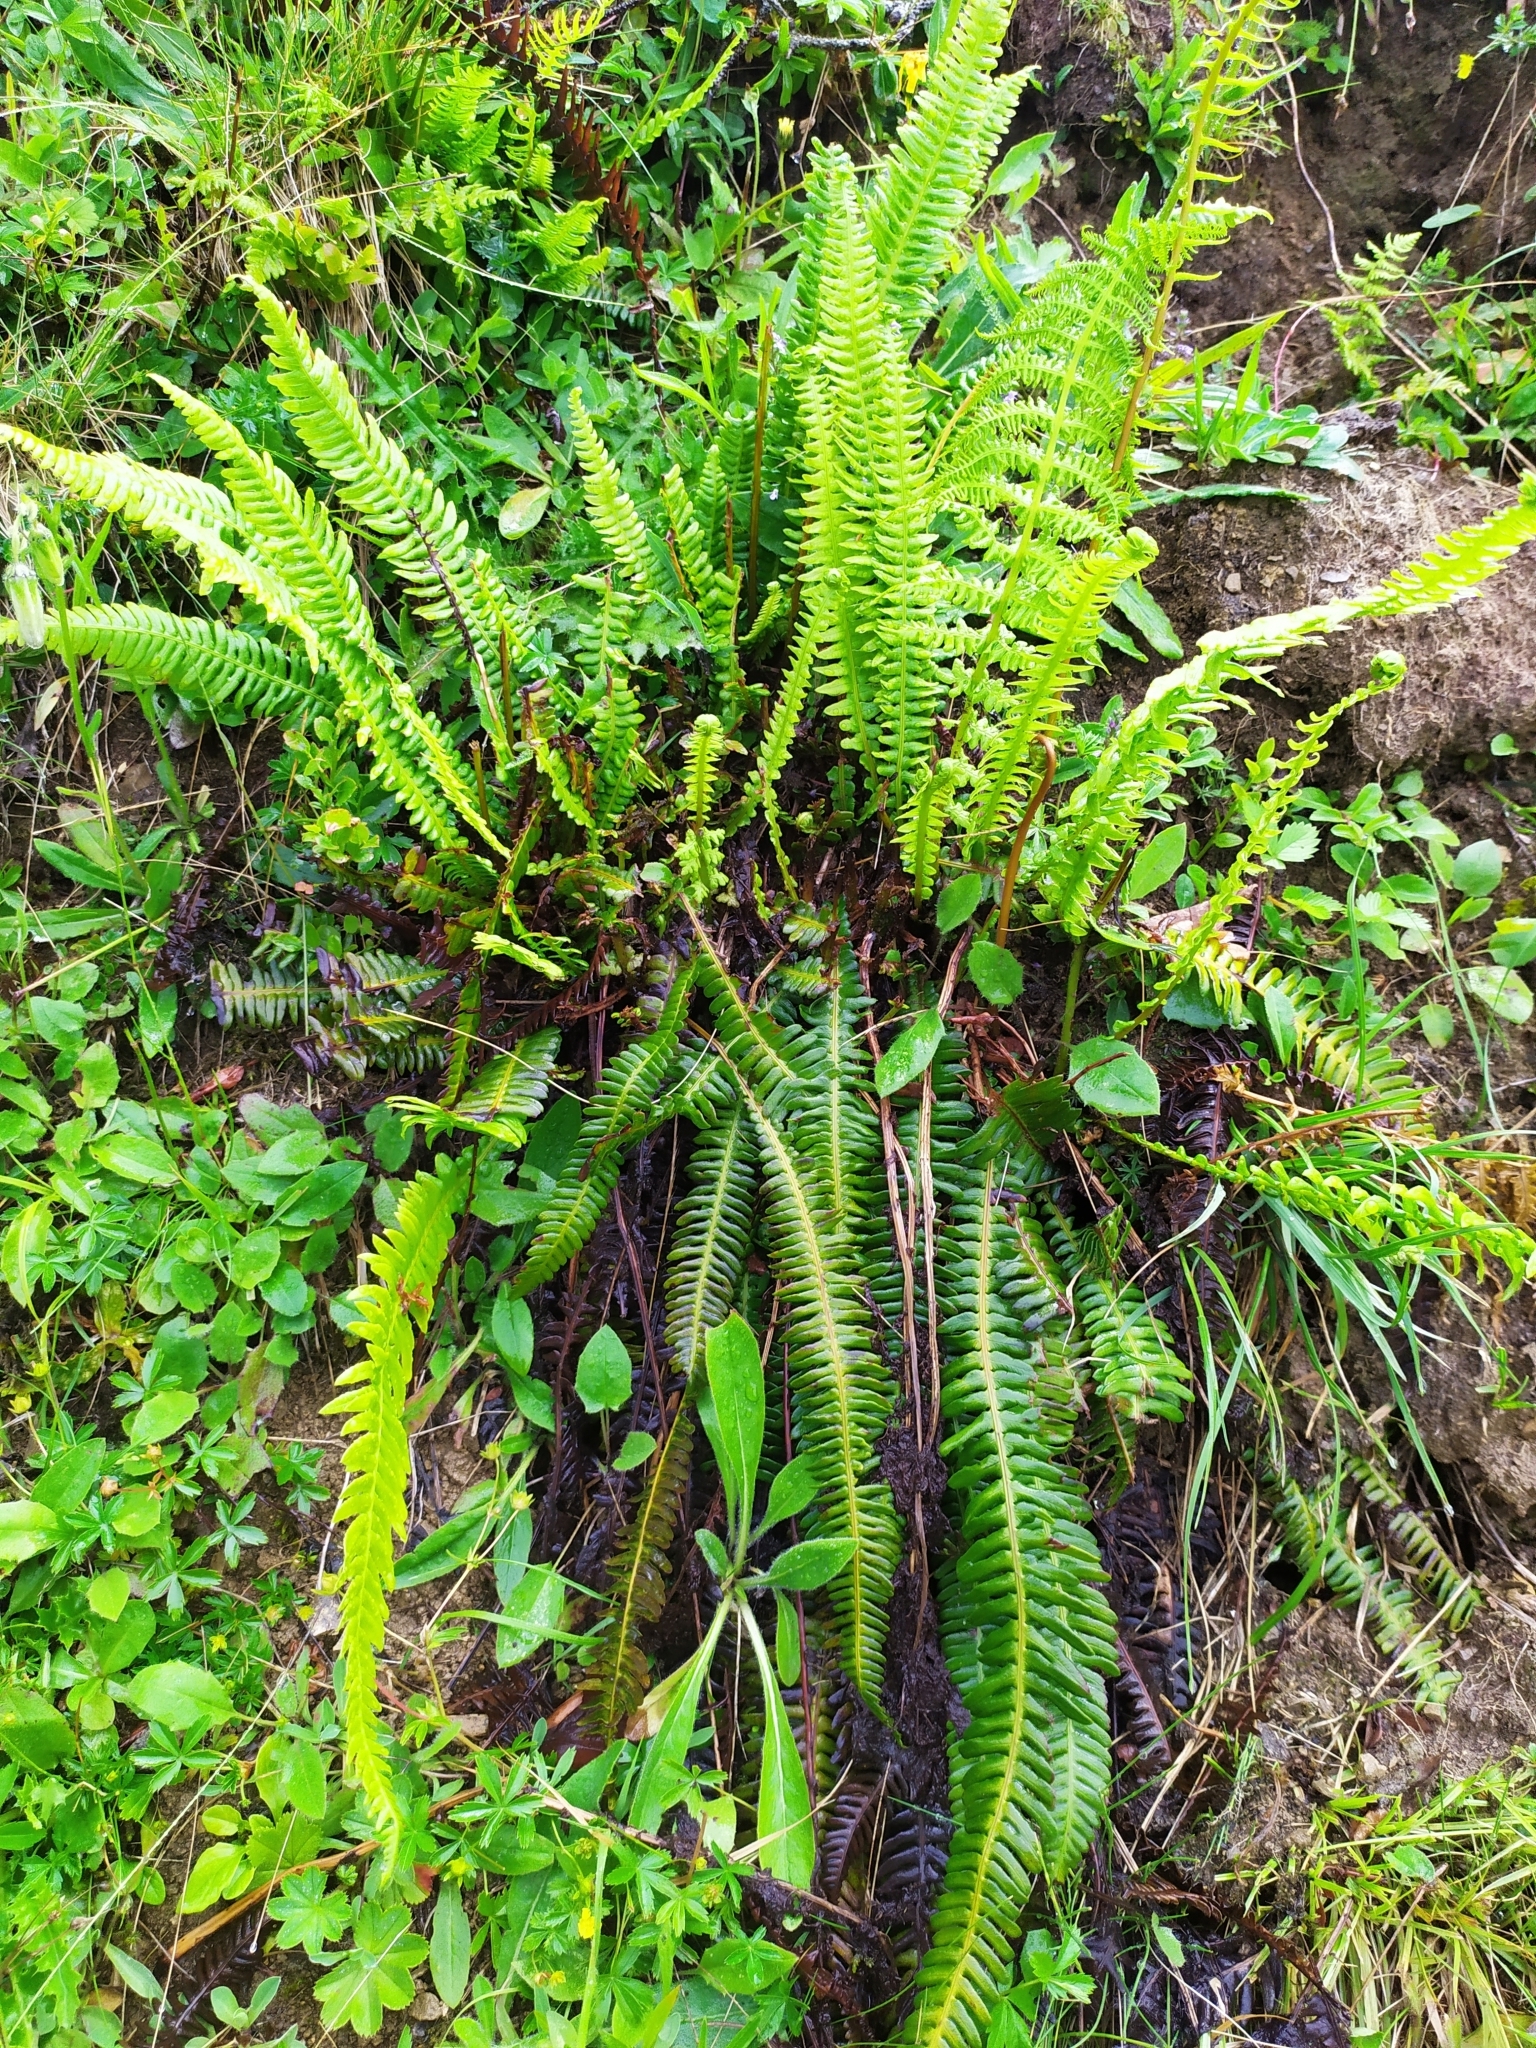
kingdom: Plantae
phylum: Tracheophyta
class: Polypodiopsida
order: Polypodiales
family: Blechnaceae
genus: Struthiopteris
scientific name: Struthiopteris spicant
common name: Deer fern
